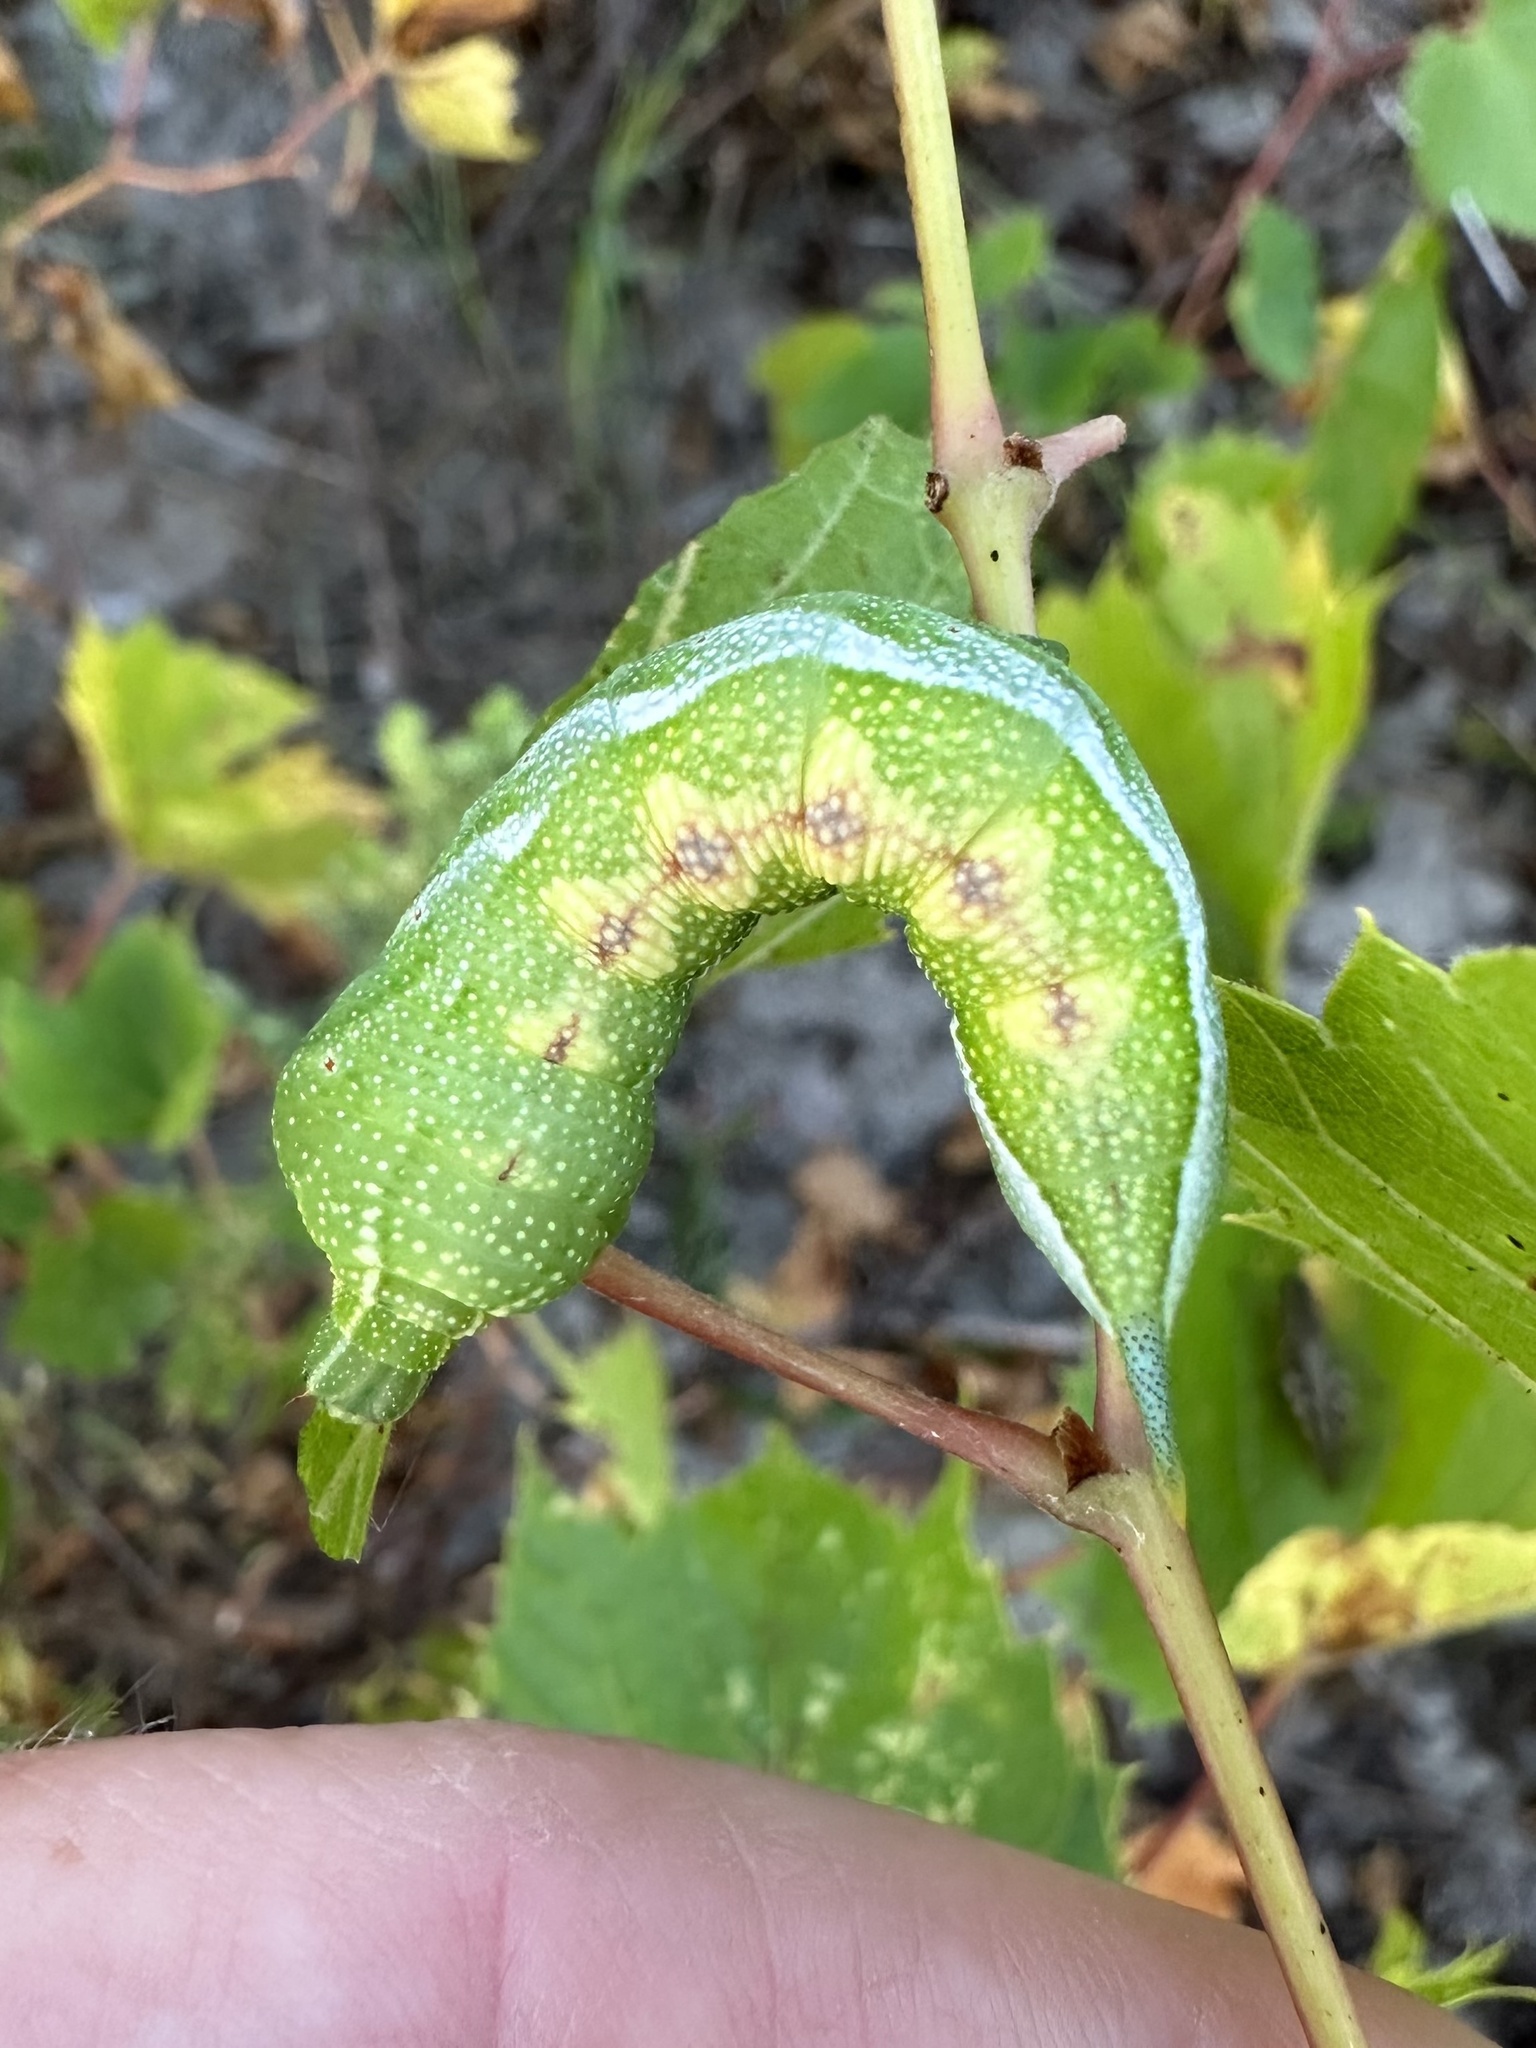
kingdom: Animalia
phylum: Arthropoda
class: Insecta
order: Lepidoptera
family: Sphingidae
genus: Darapsa
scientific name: Darapsa myron
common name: Hog sphinx
